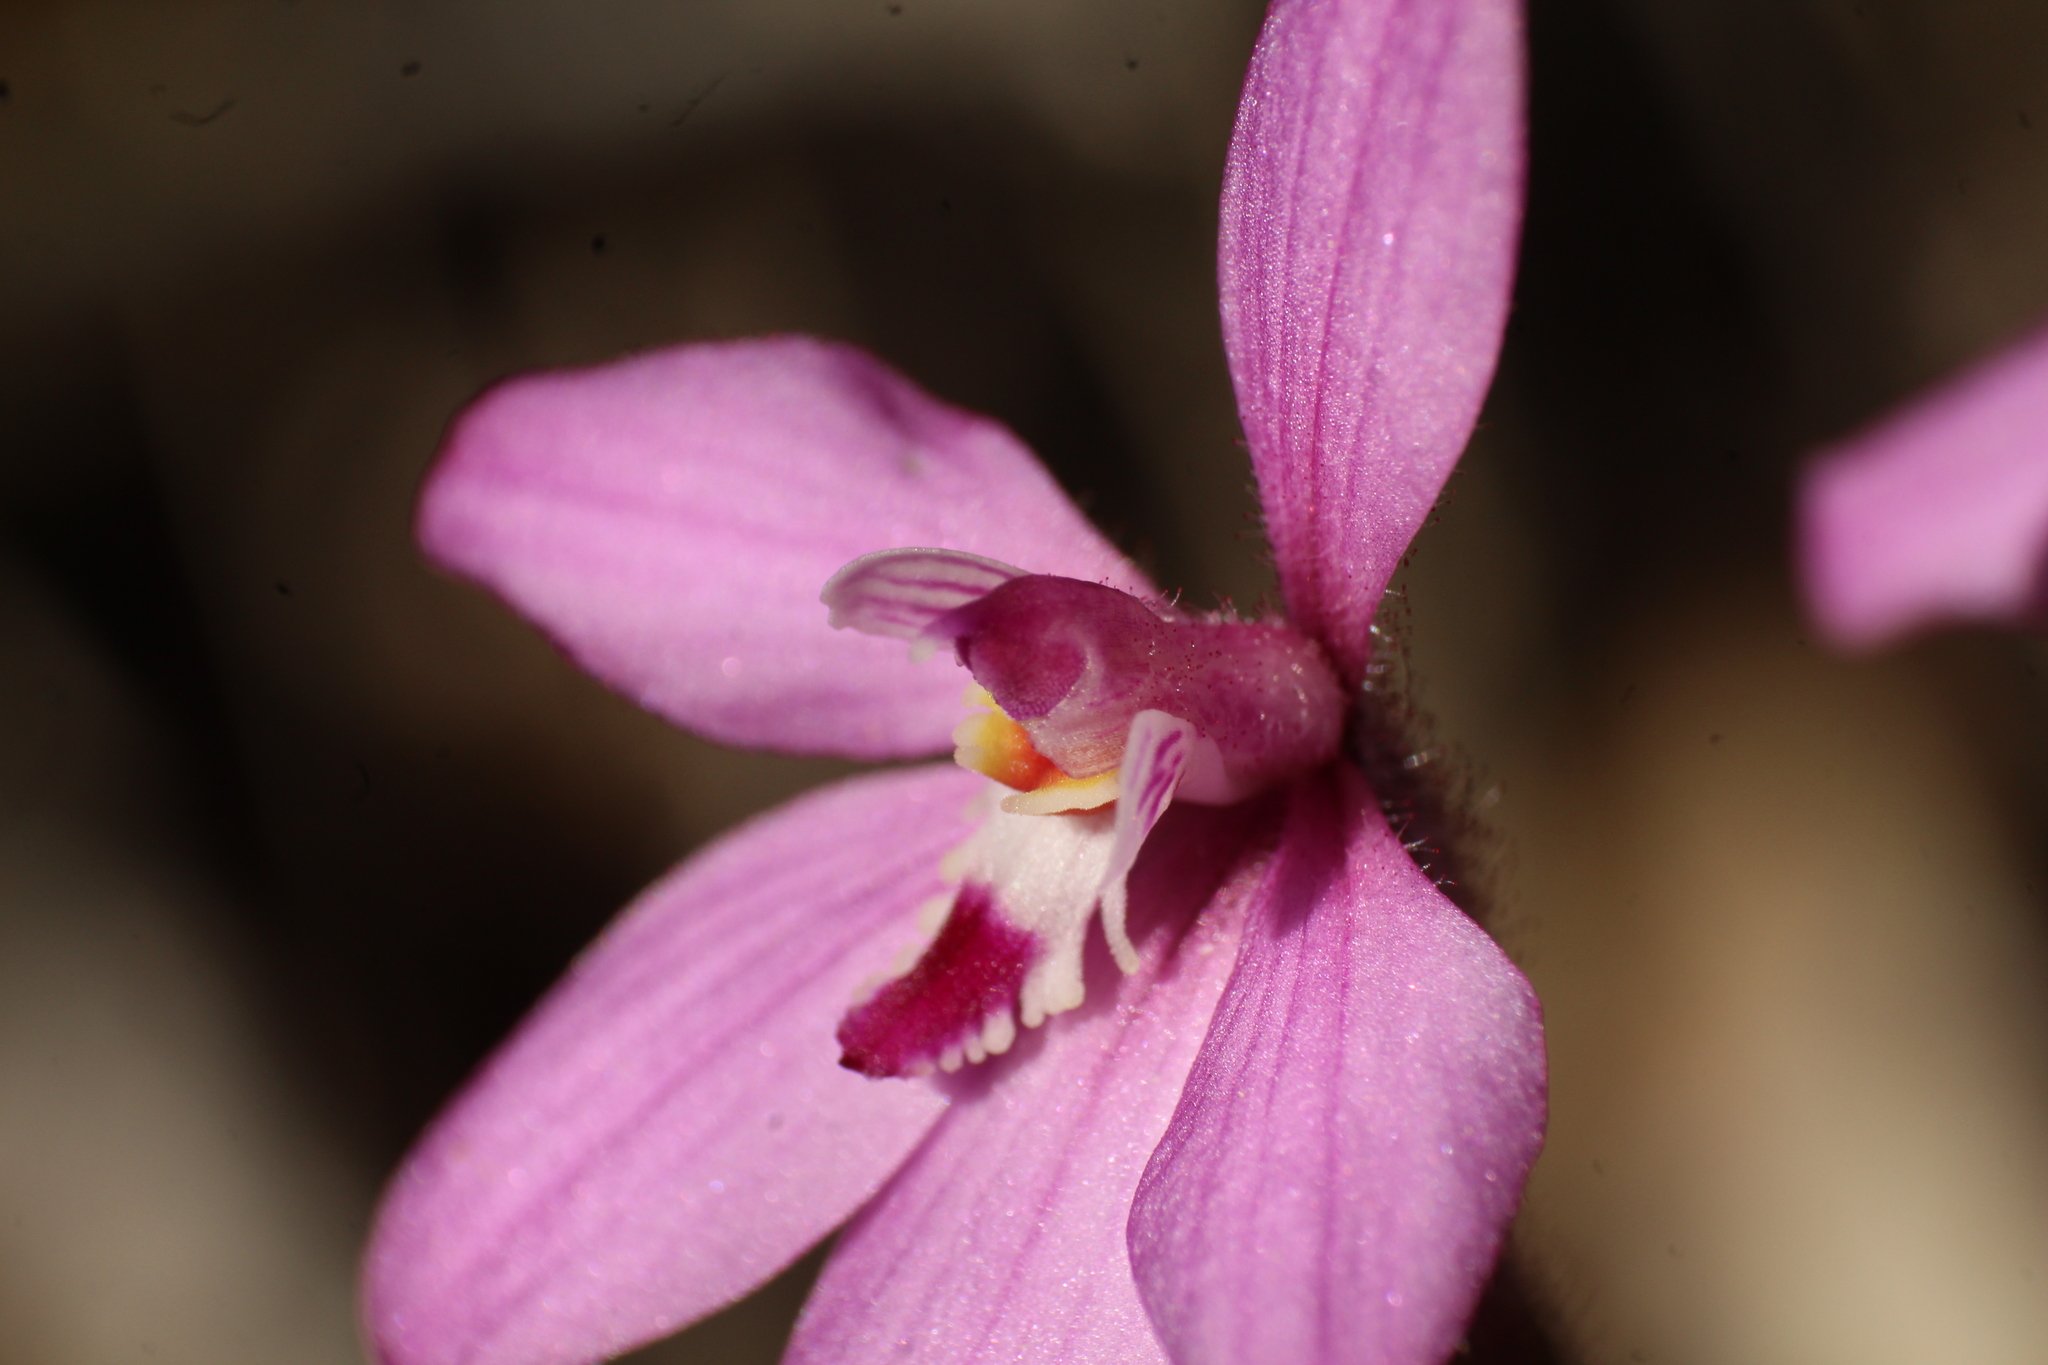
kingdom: Plantae
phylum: Tracheophyta
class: Liliopsida
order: Asparagales
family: Orchidaceae
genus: Caladenia
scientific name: Caladenia reptans
